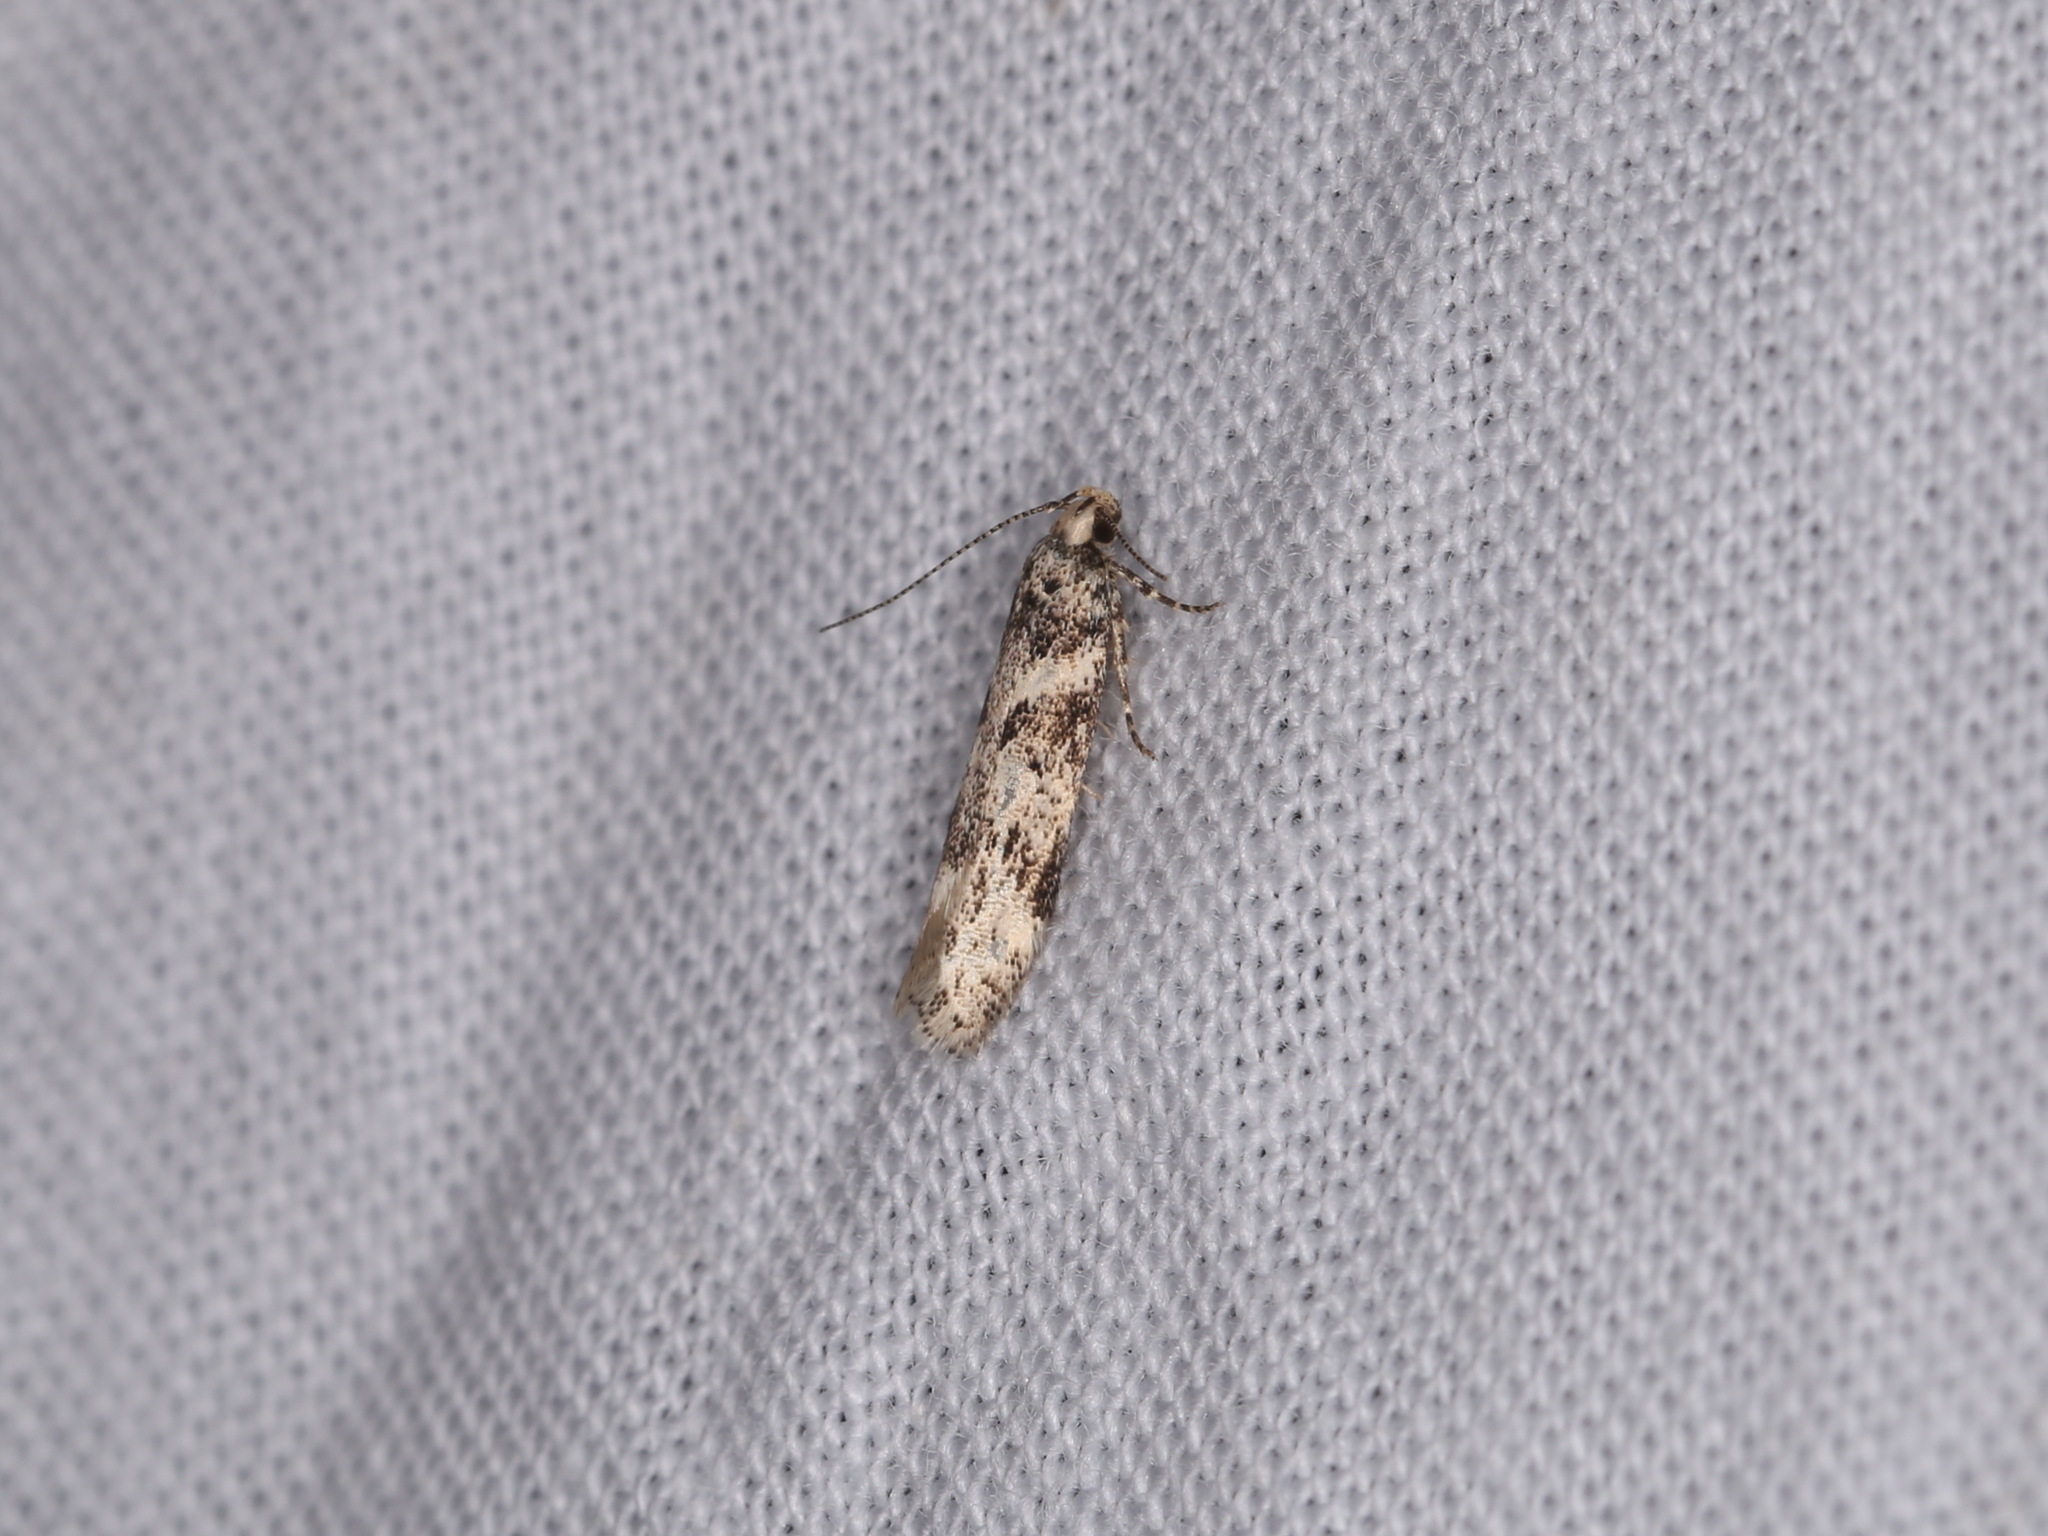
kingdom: Animalia
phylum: Arthropoda
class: Insecta
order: Lepidoptera
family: Gelechiidae
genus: Chionodes
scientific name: Chionodes electella
